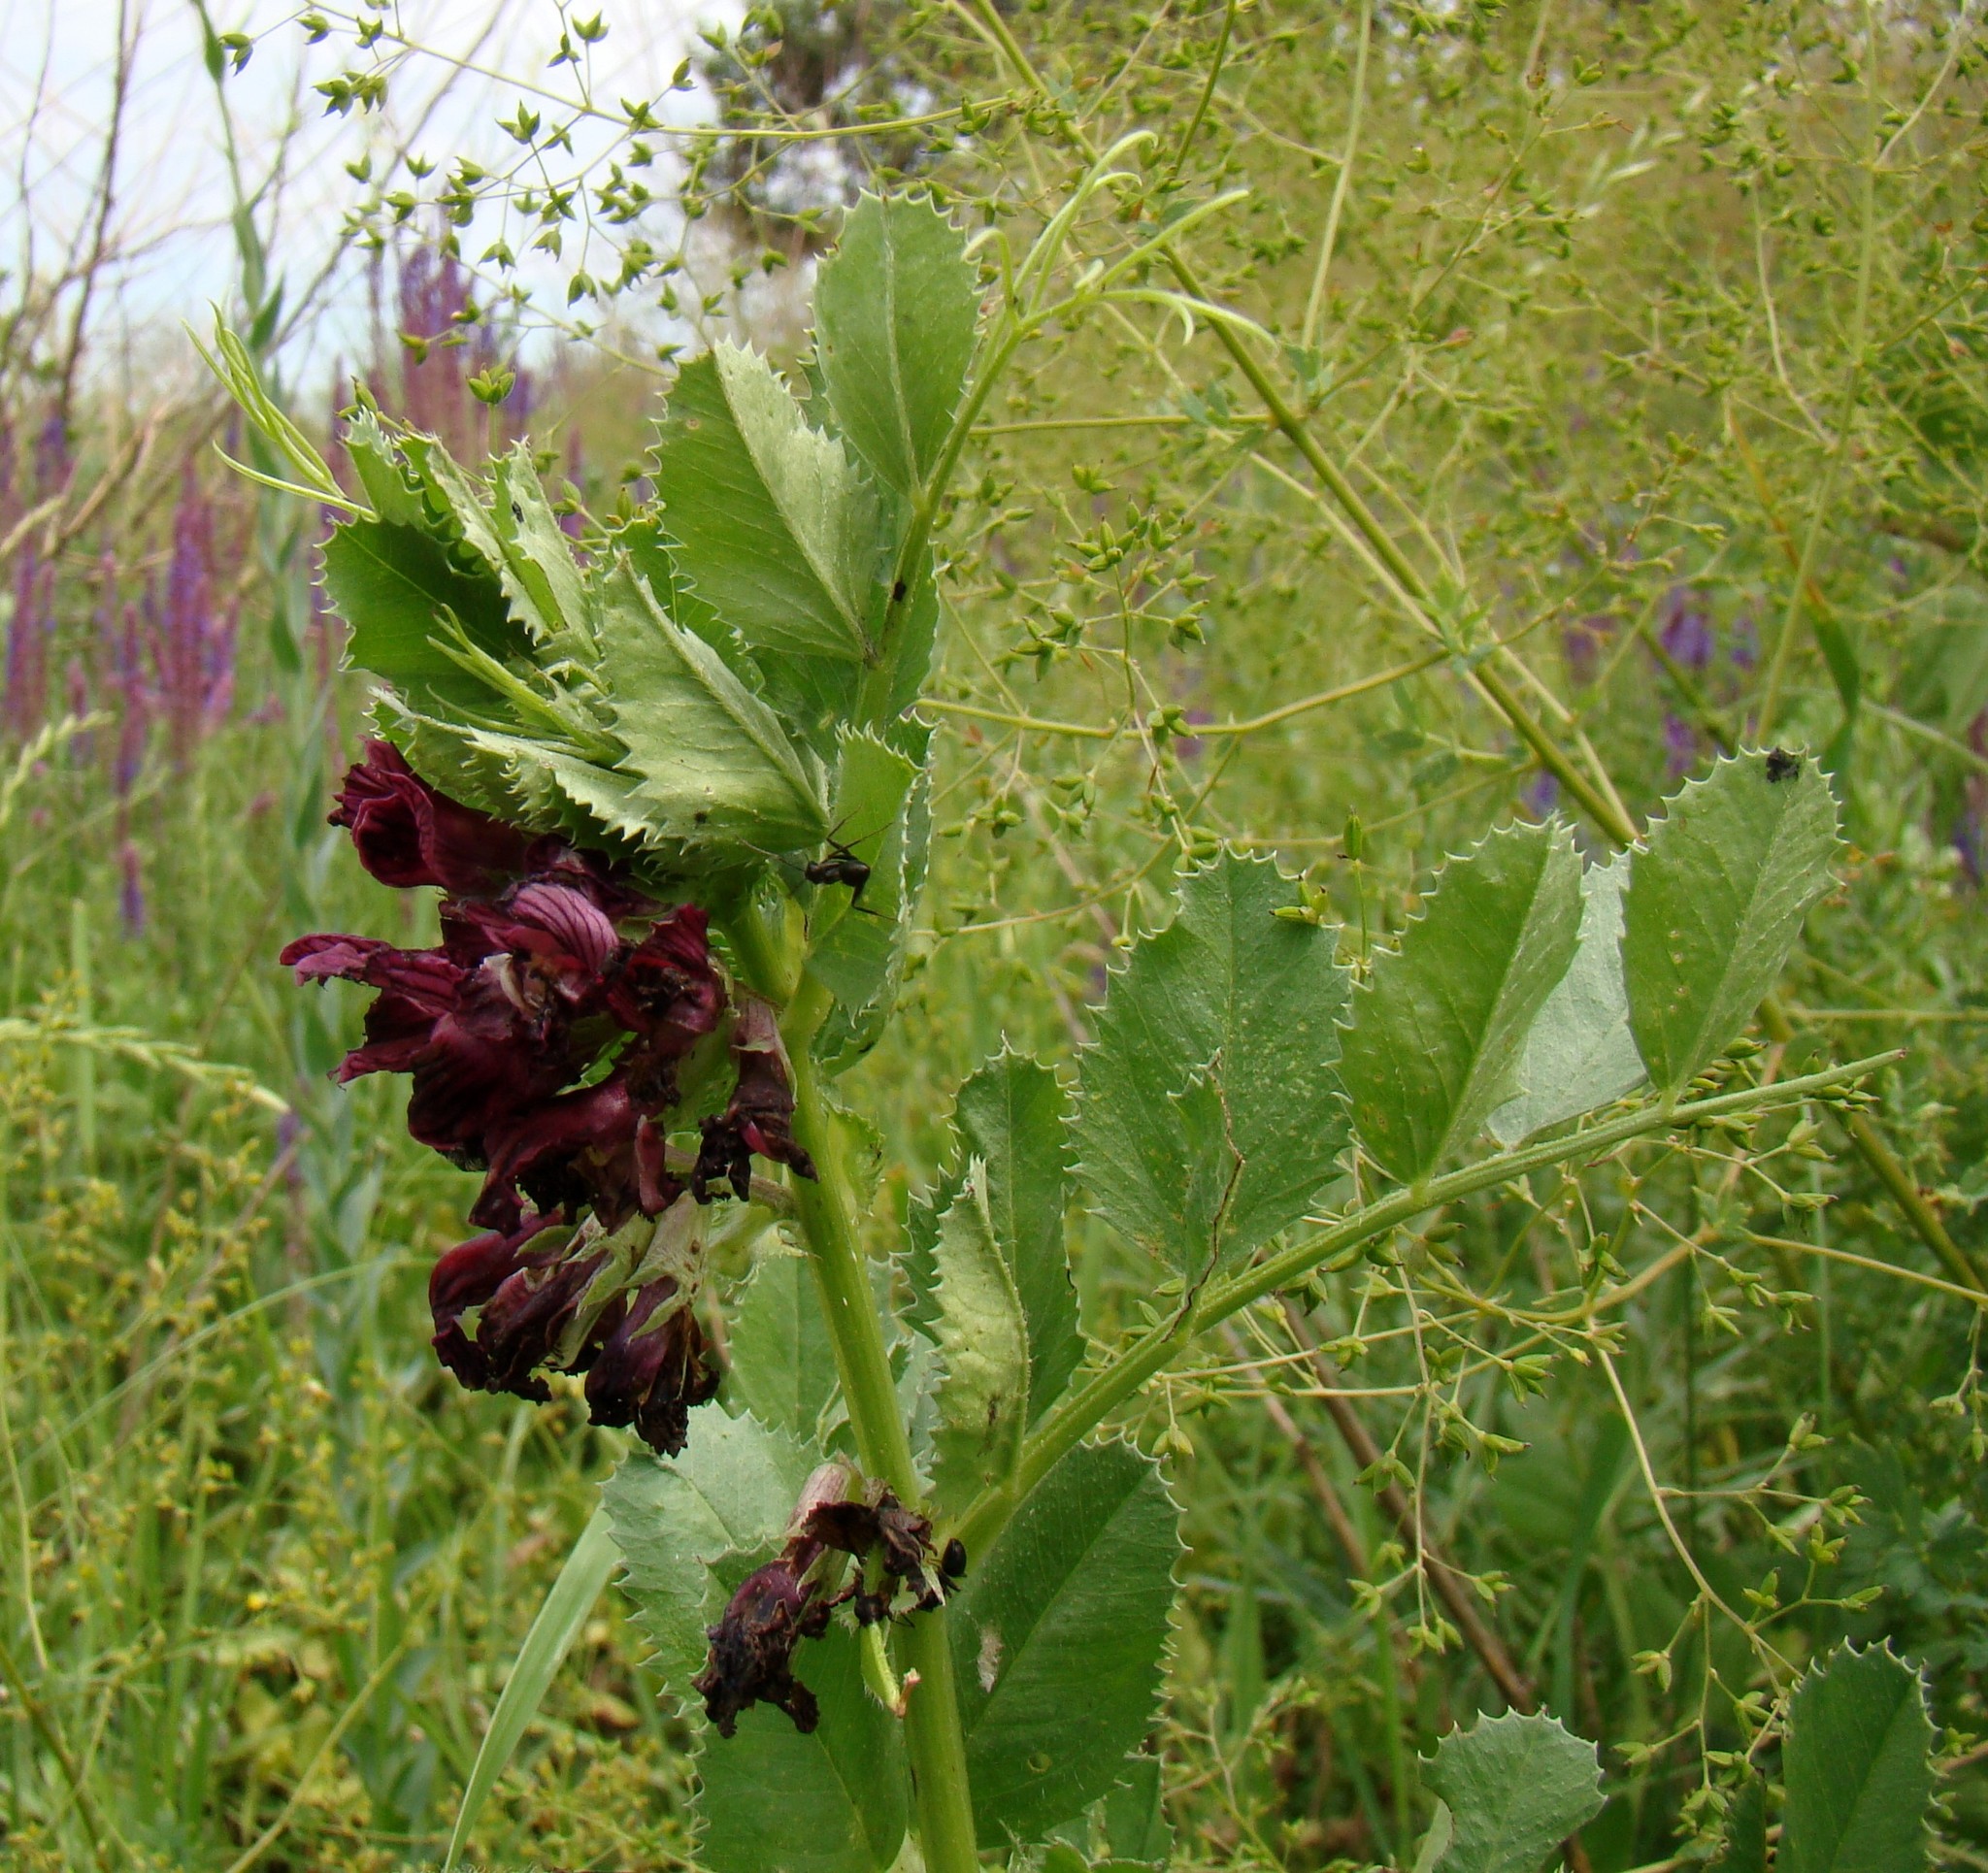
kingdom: Plantae
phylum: Tracheophyta
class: Magnoliopsida
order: Fabales
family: Fabaceae
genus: Vicia
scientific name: Vicia serratifolia
